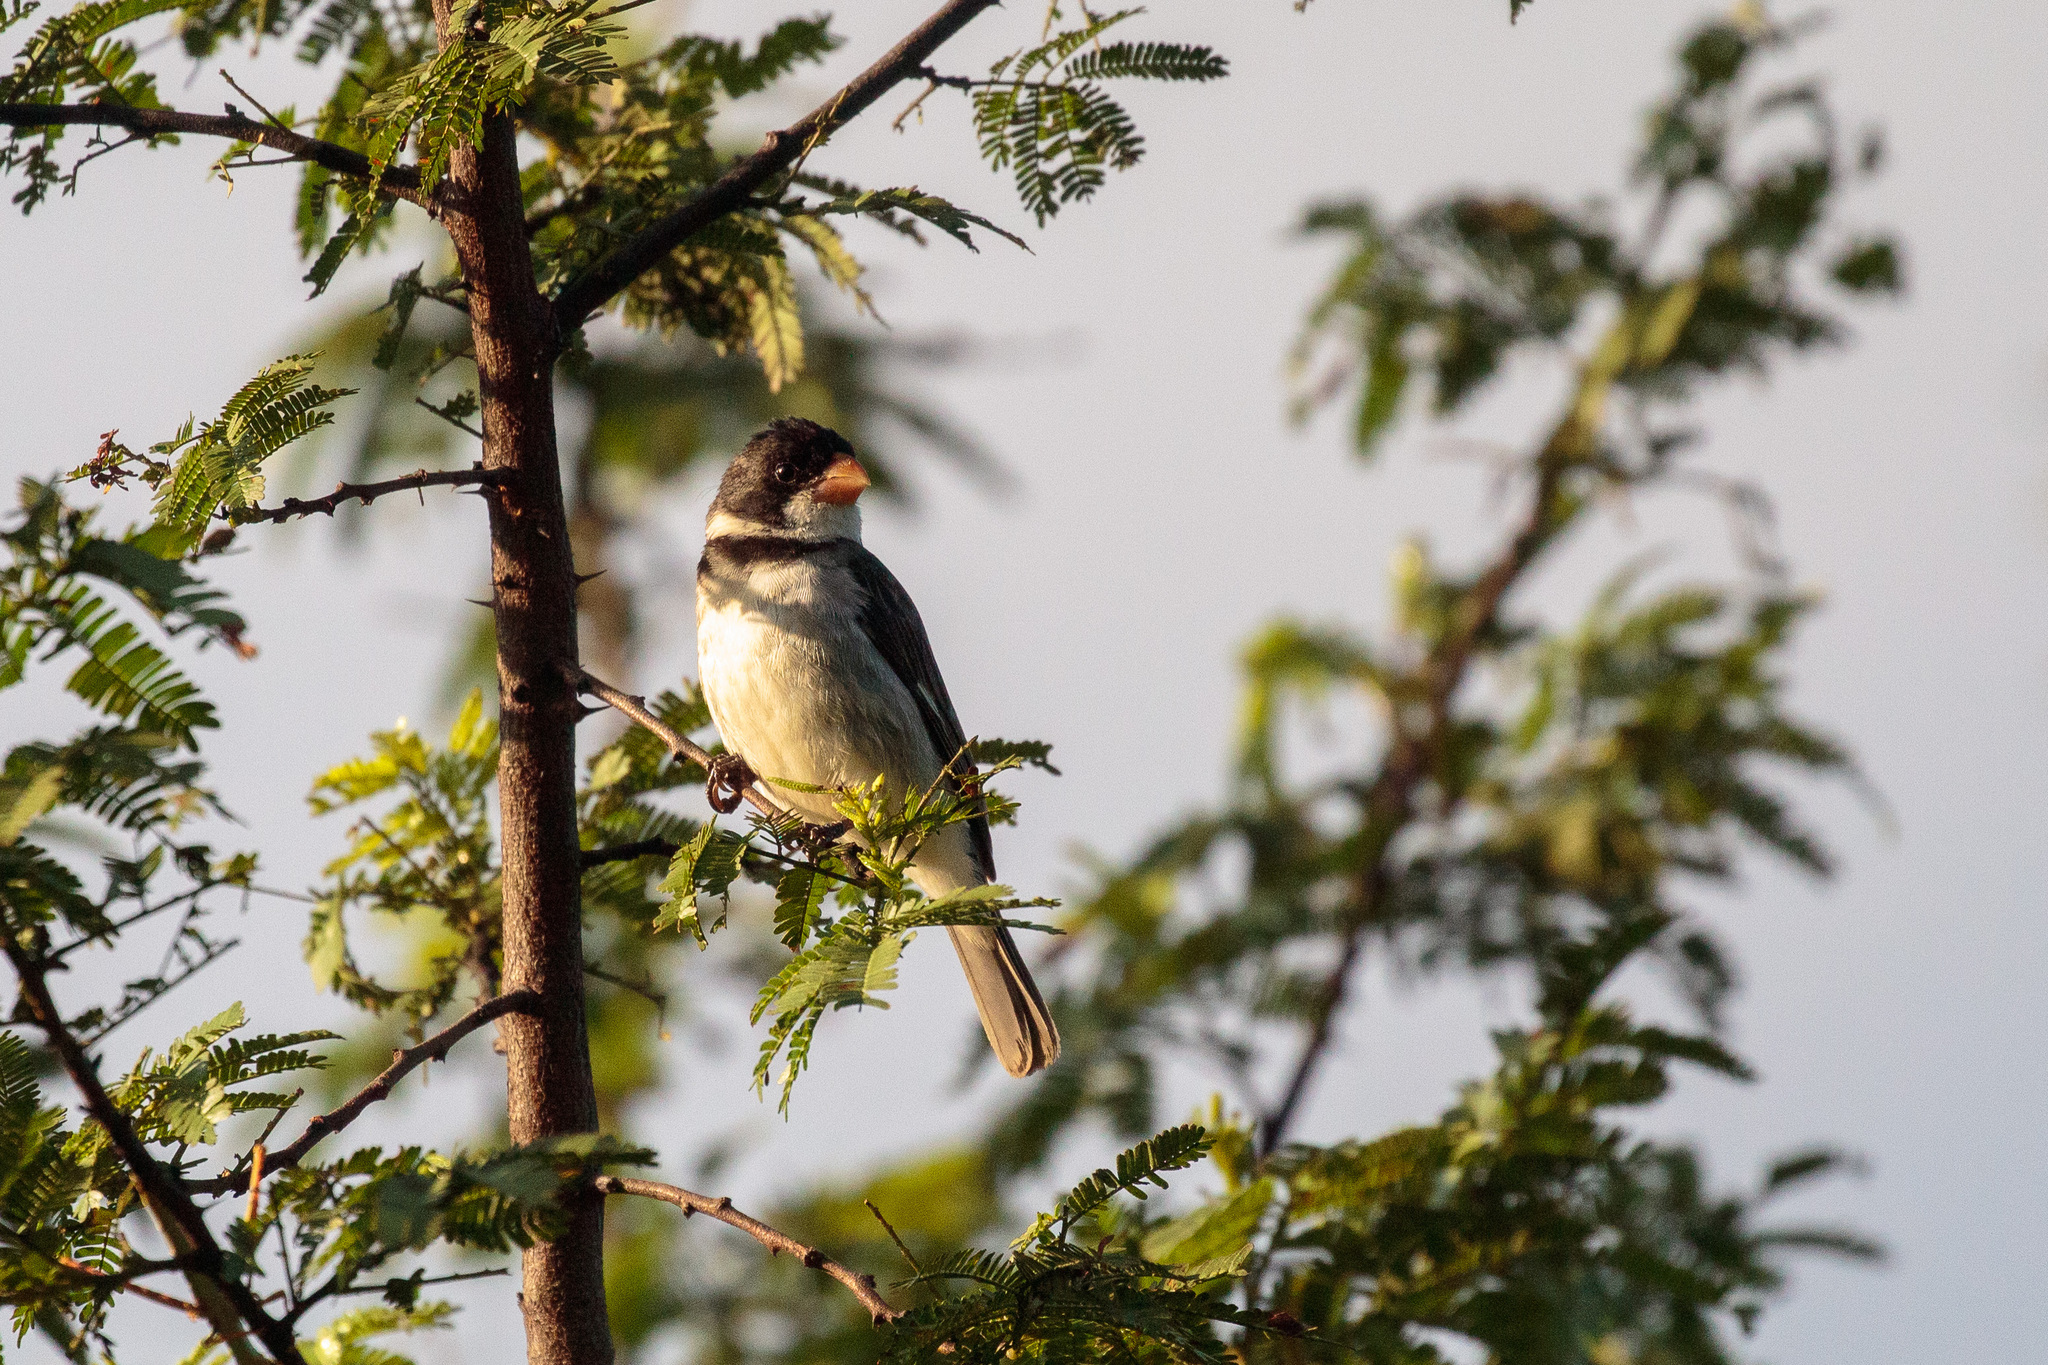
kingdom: Animalia
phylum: Chordata
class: Aves
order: Passeriformes
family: Thraupidae
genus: Sporophila
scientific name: Sporophila albogularis
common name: White-throated seedeater
